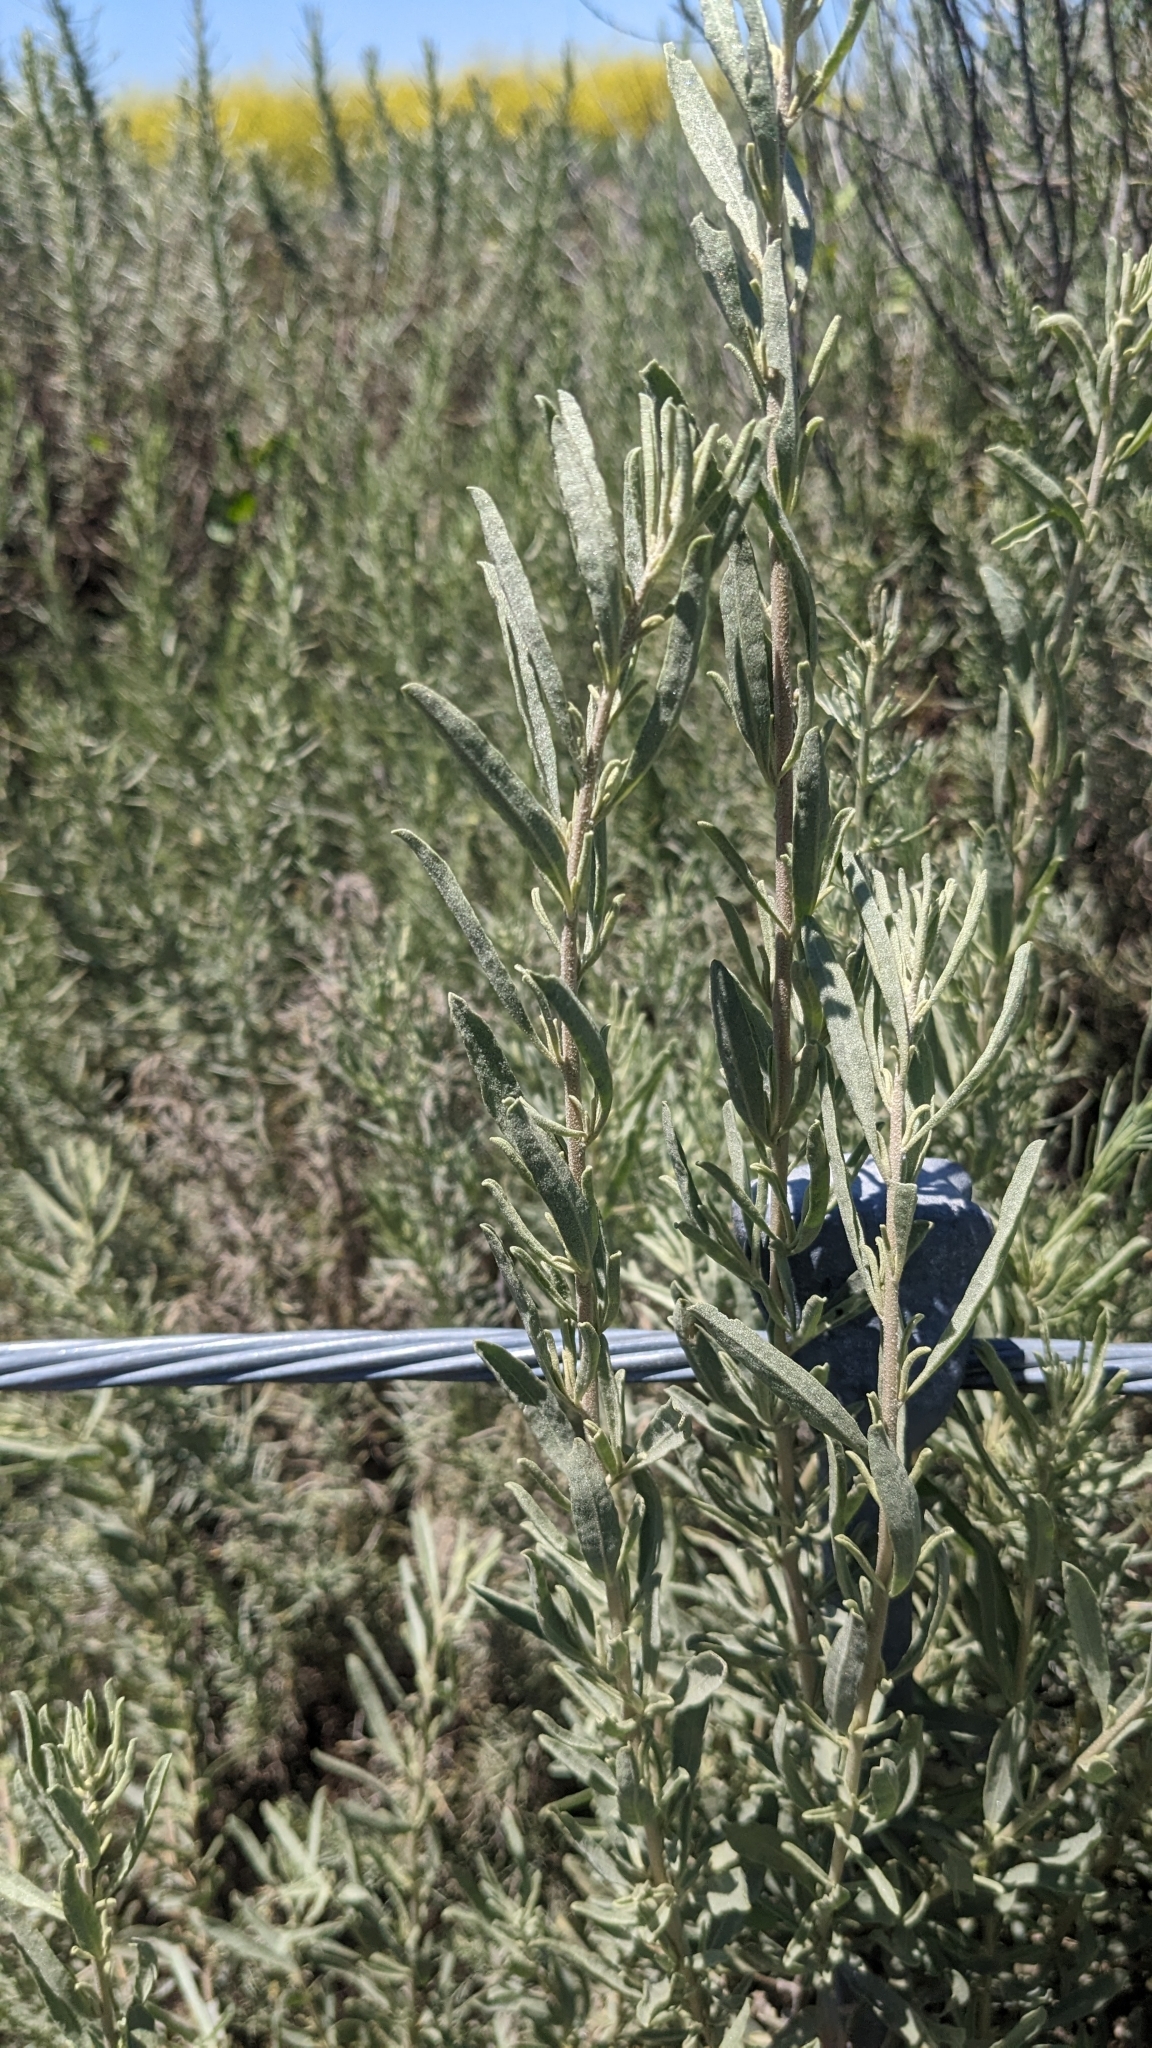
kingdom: Plantae
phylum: Tracheophyta
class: Magnoliopsida
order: Caryophyllales
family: Amaranthaceae
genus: Atriplex
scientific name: Atriplex canescens
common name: Four-wing saltbush
